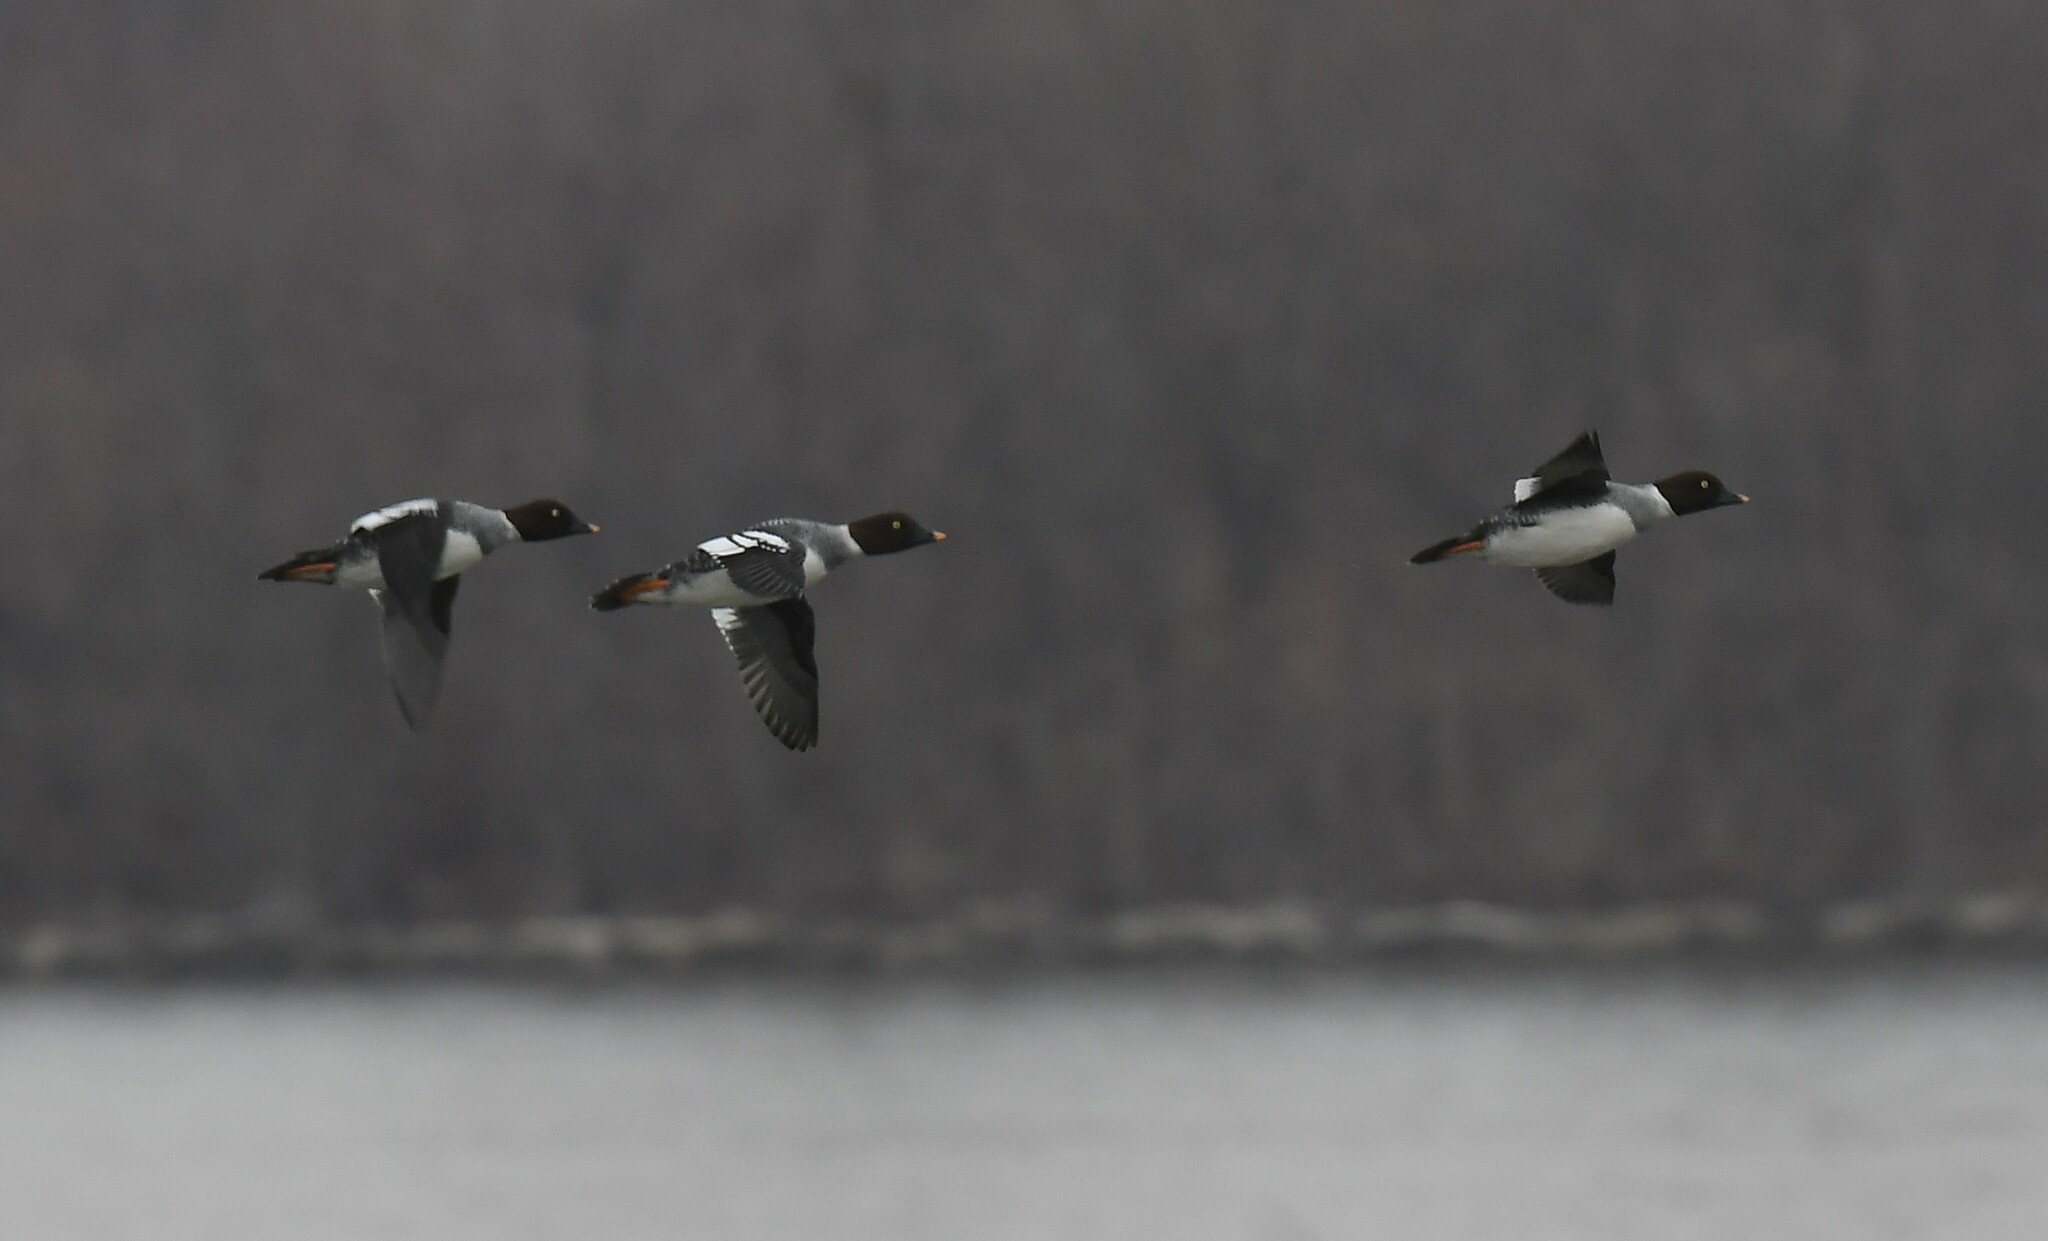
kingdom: Animalia
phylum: Chordata
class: Aves
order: Anseriformes
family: Anatidae
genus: Bucephala
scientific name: Bucephala clangula
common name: Common goldeneye
